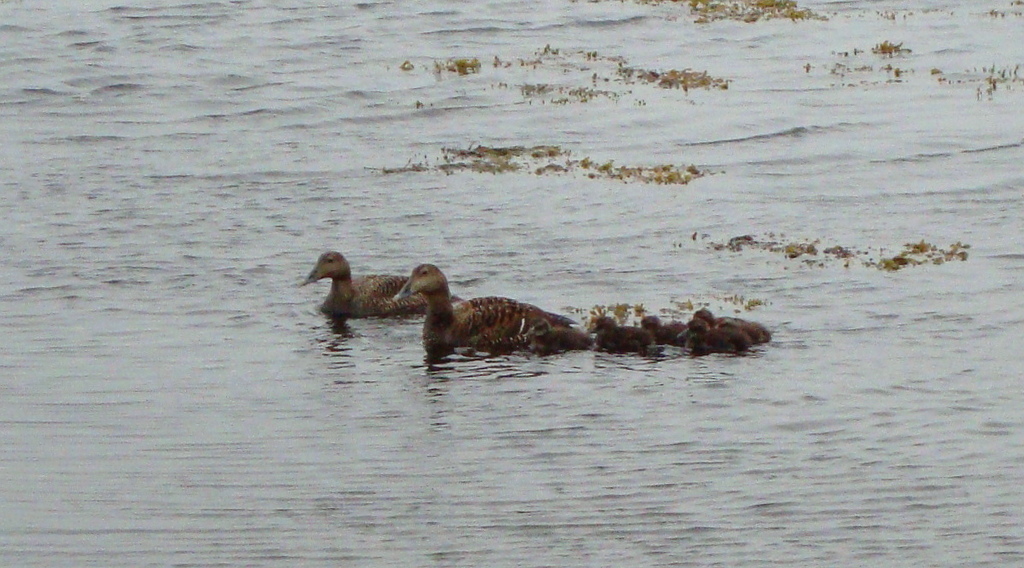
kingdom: Animalia
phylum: Chordata
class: Aves
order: Anseriformes
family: Anatidae
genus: Somateria
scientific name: Somateria mollissima
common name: Common eider
